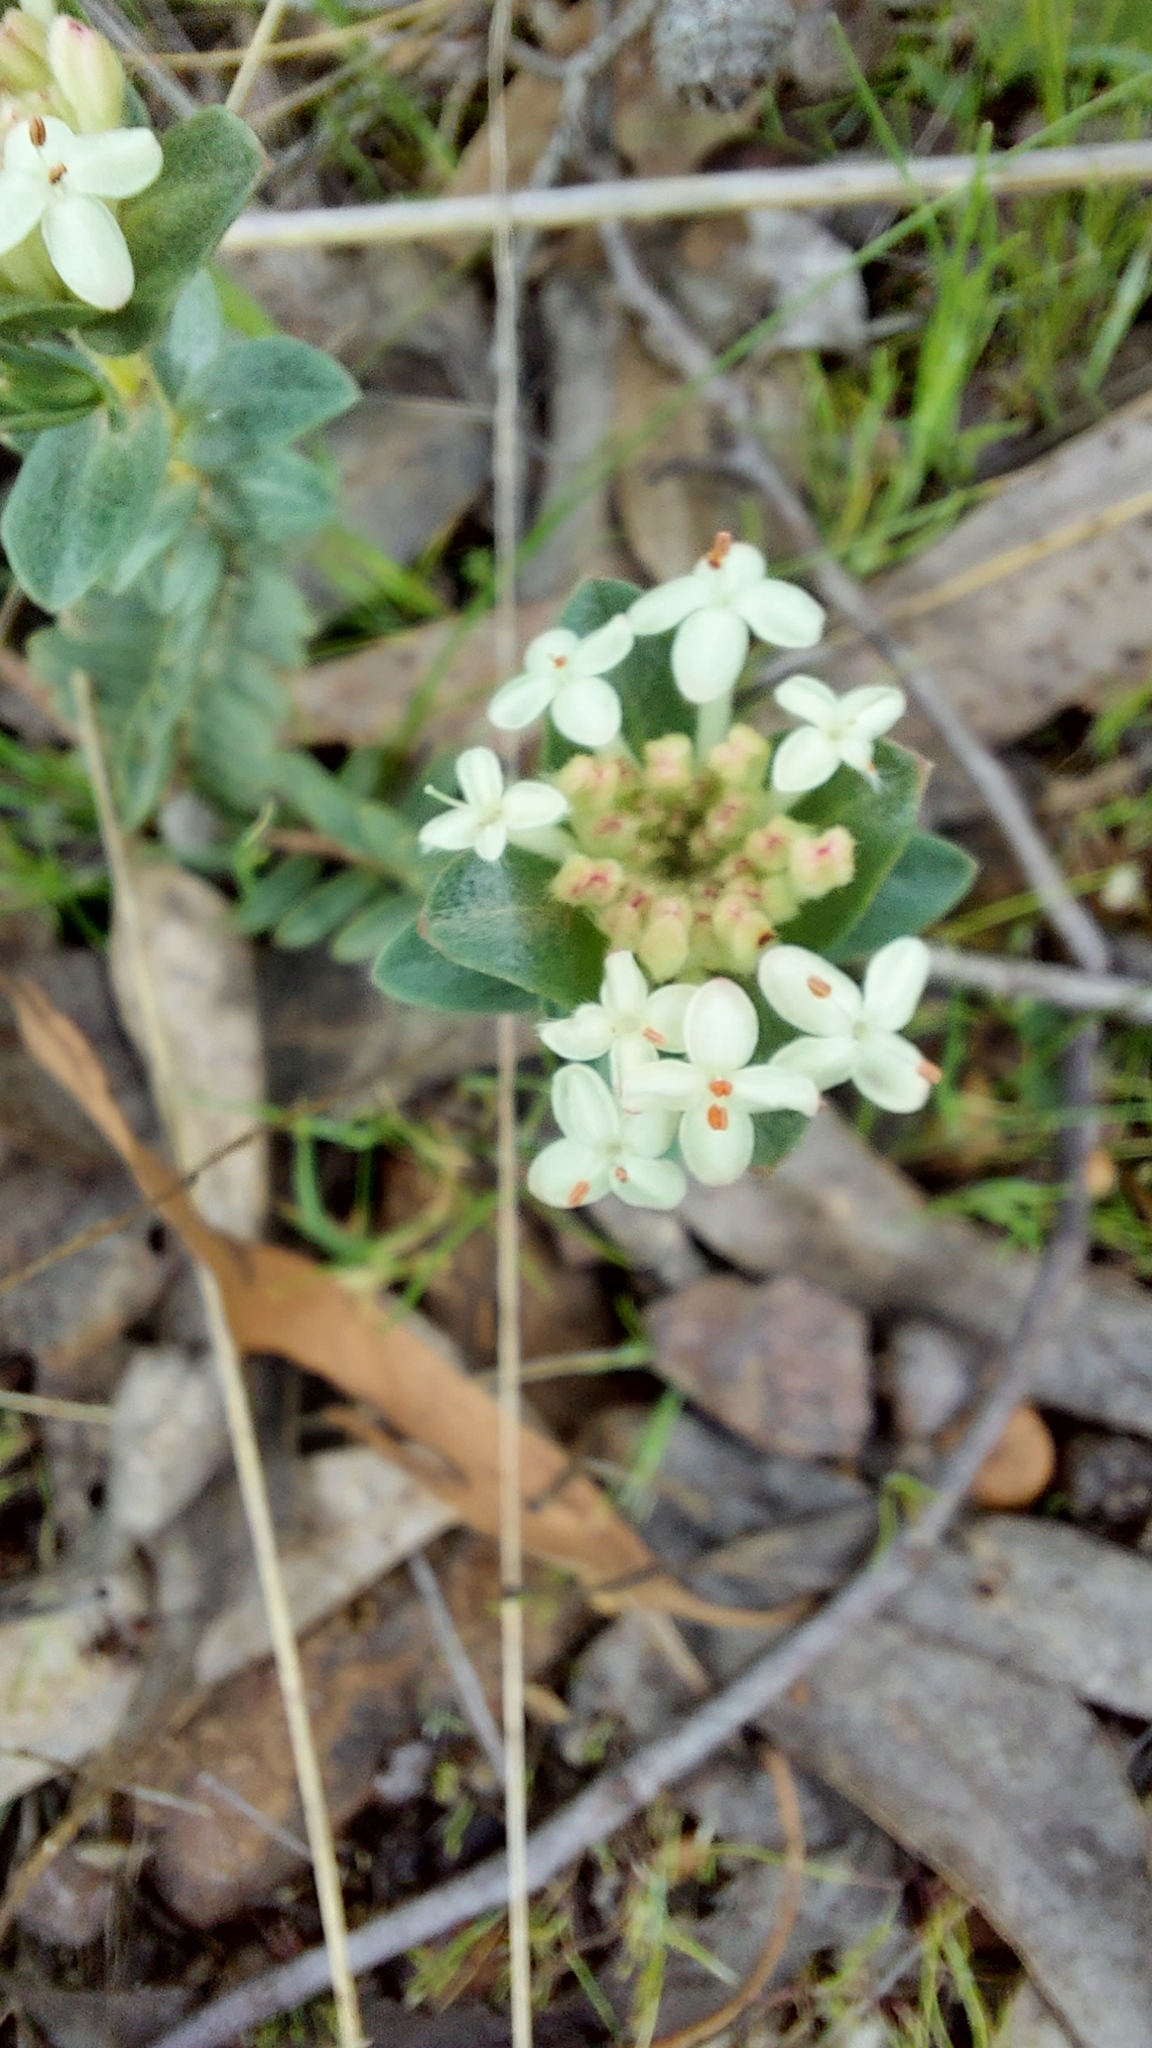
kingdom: Plantae
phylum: Tracheophyta
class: Magnoliopsida
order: Malvales
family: Thymelaeaceae
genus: Pimelea
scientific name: Pimelea humilis
